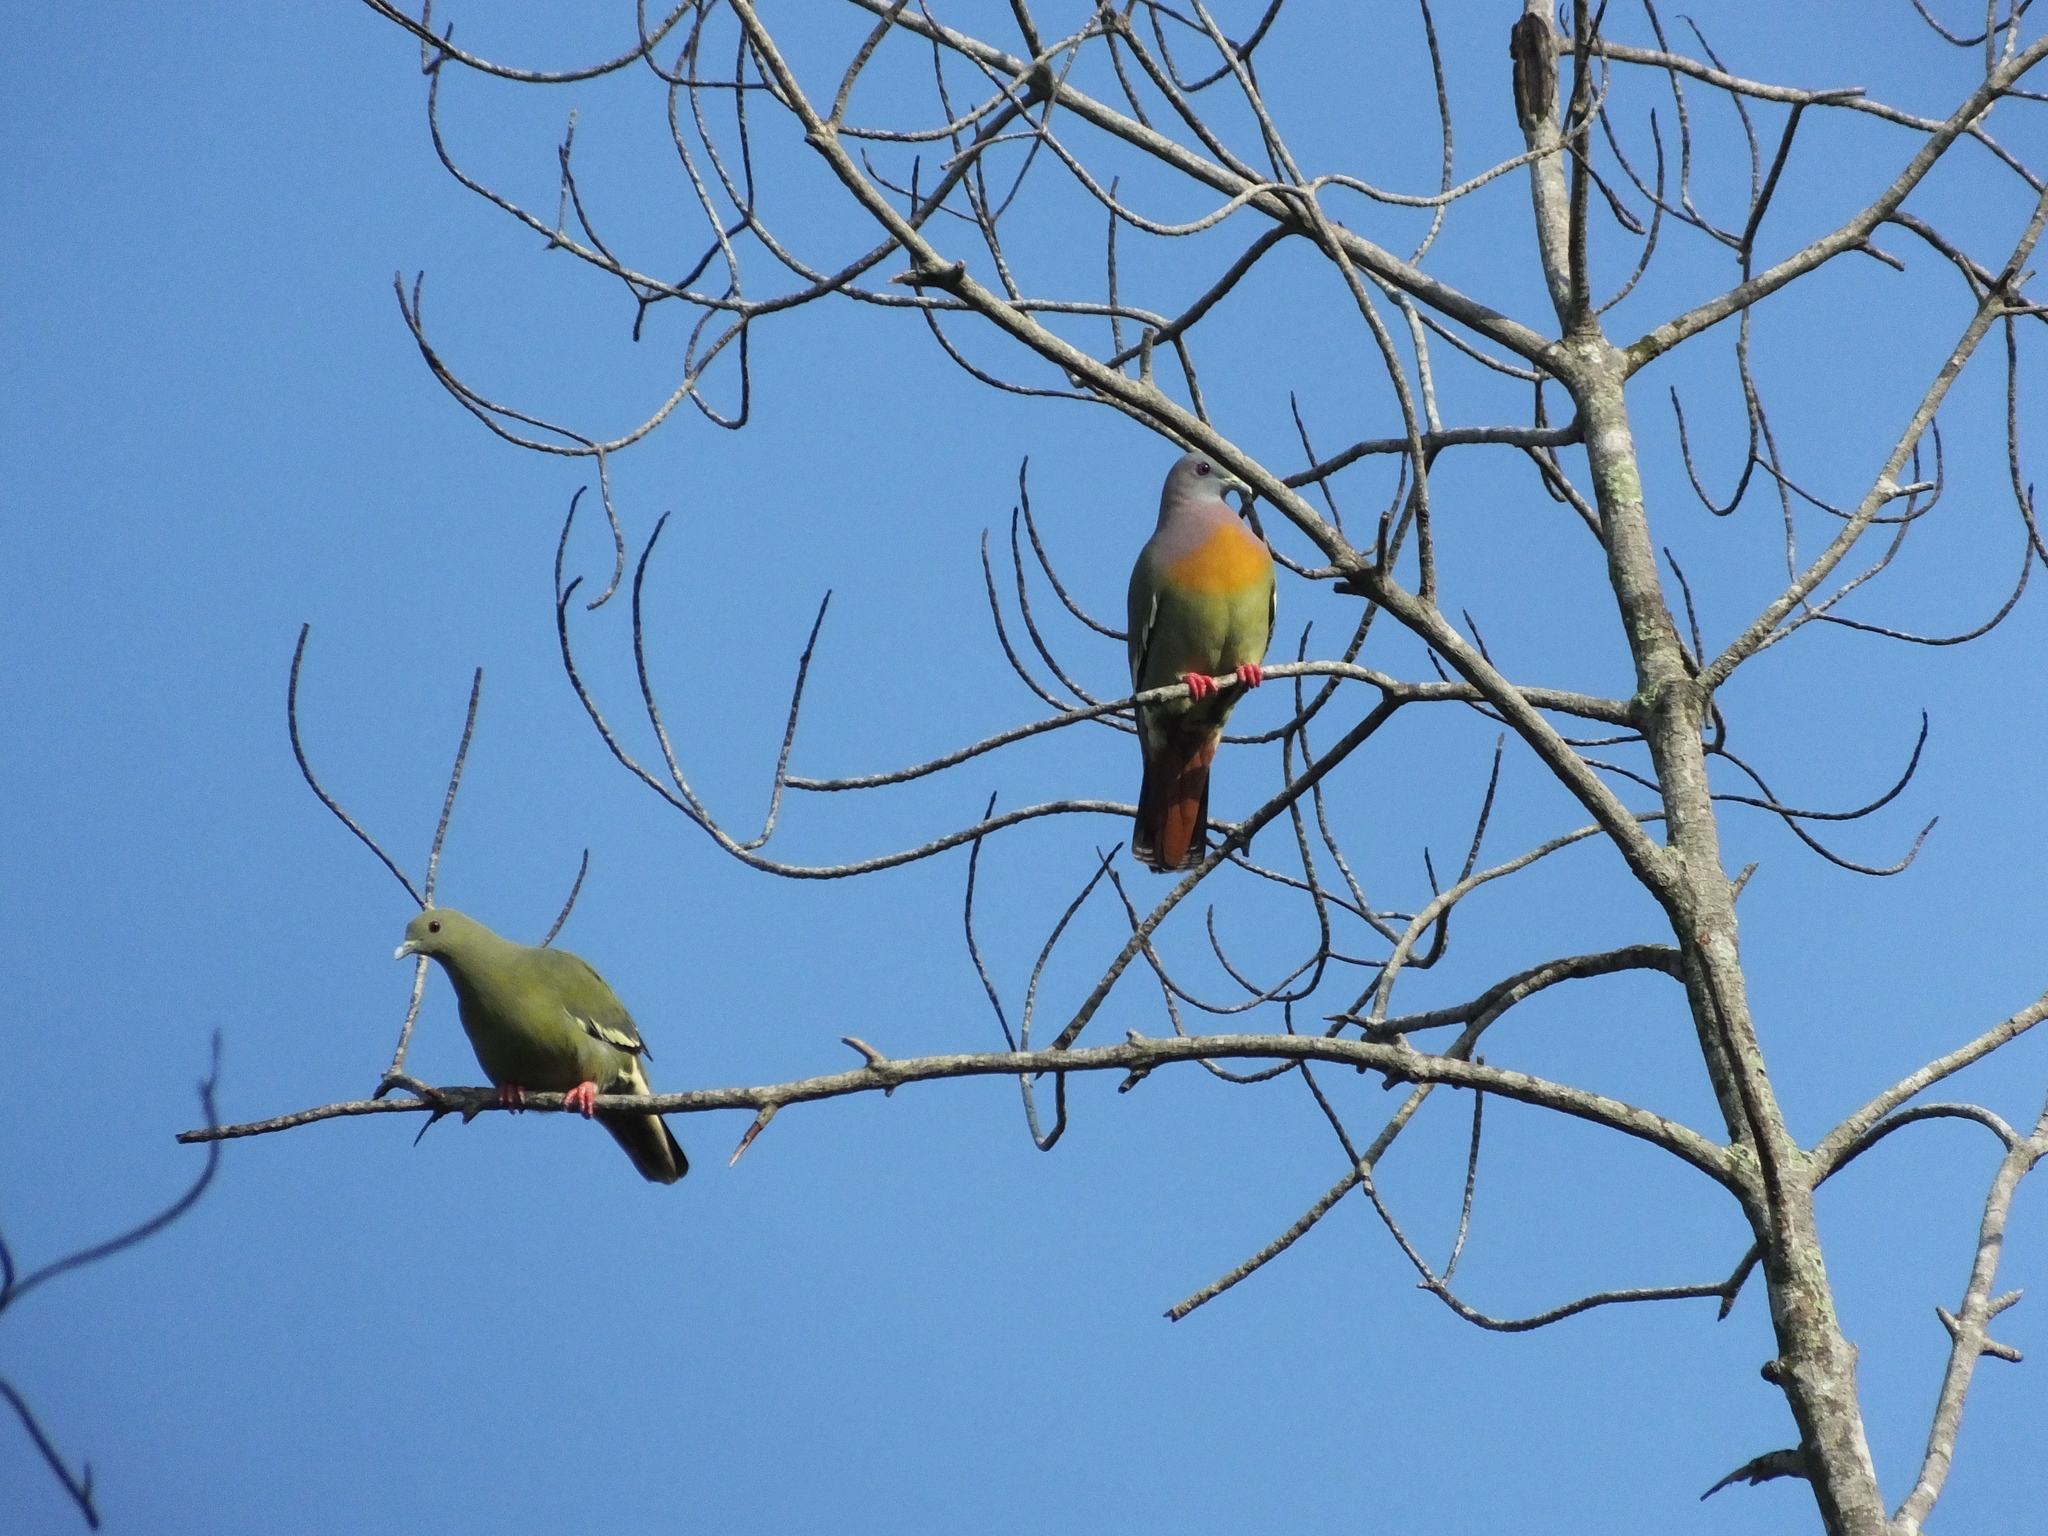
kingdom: Animalia
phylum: Chordata
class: Aves
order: Columbiformes
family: Columbidae
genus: Treron
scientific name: Treron vernans
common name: Pink-necked green pigeon
